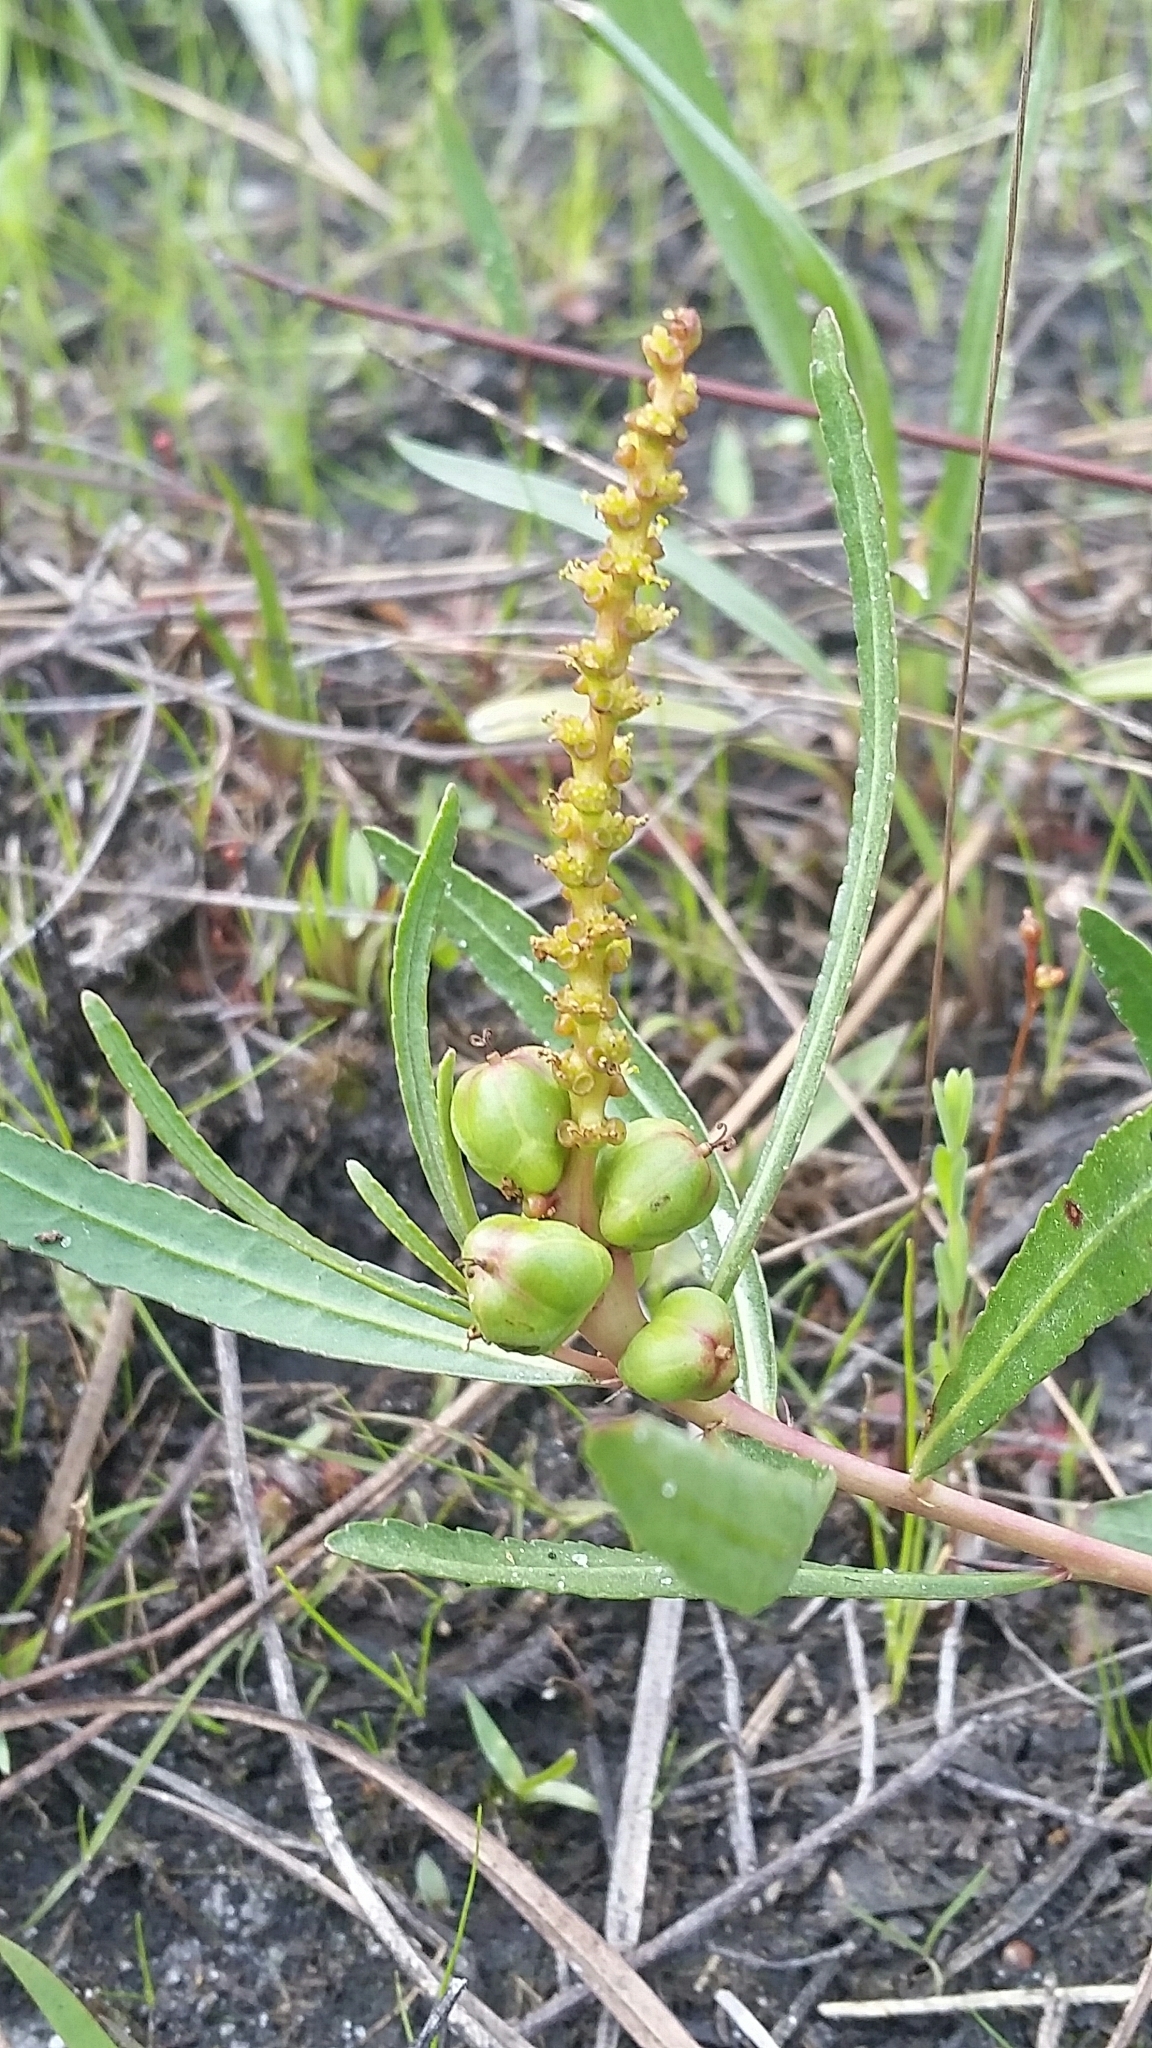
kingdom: Plantae
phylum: Tracheophyta
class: Magnoliopsida
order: Malpighiales
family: Euphorbiaceae
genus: Stillingia
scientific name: Stillingia sylvatica
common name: Queen's-delight
